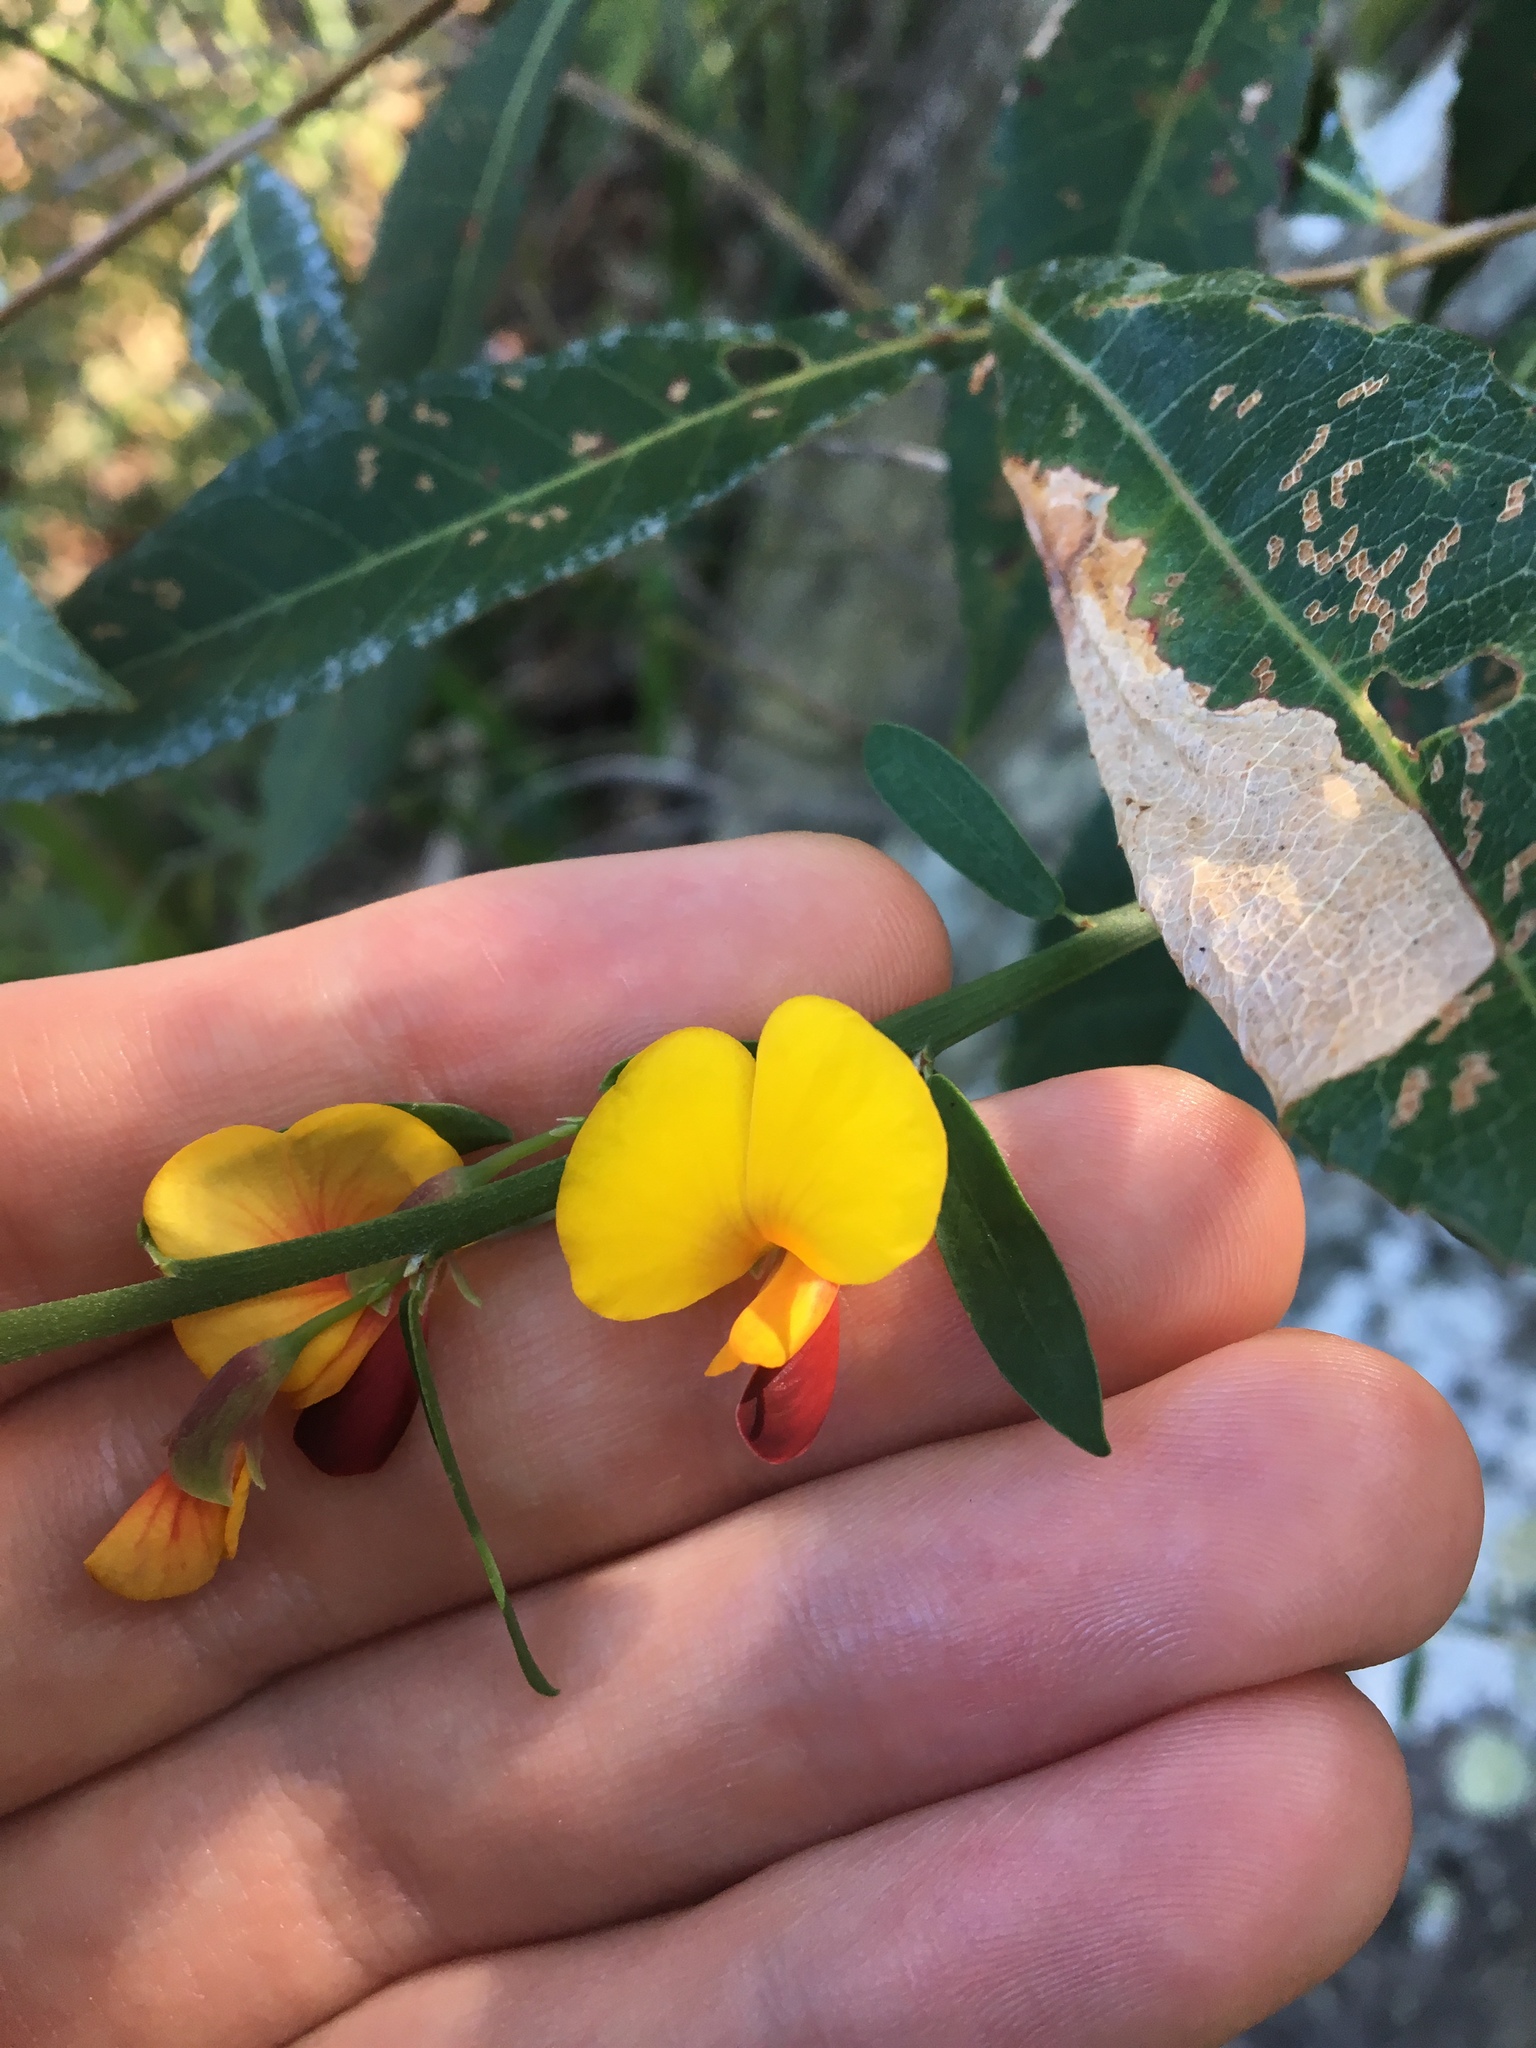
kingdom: Plantae
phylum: Tracheophyta
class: Magnoliopsida
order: Fabales
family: Fabaceae
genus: Bossiaea
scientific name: Bossiaea heterophylla
